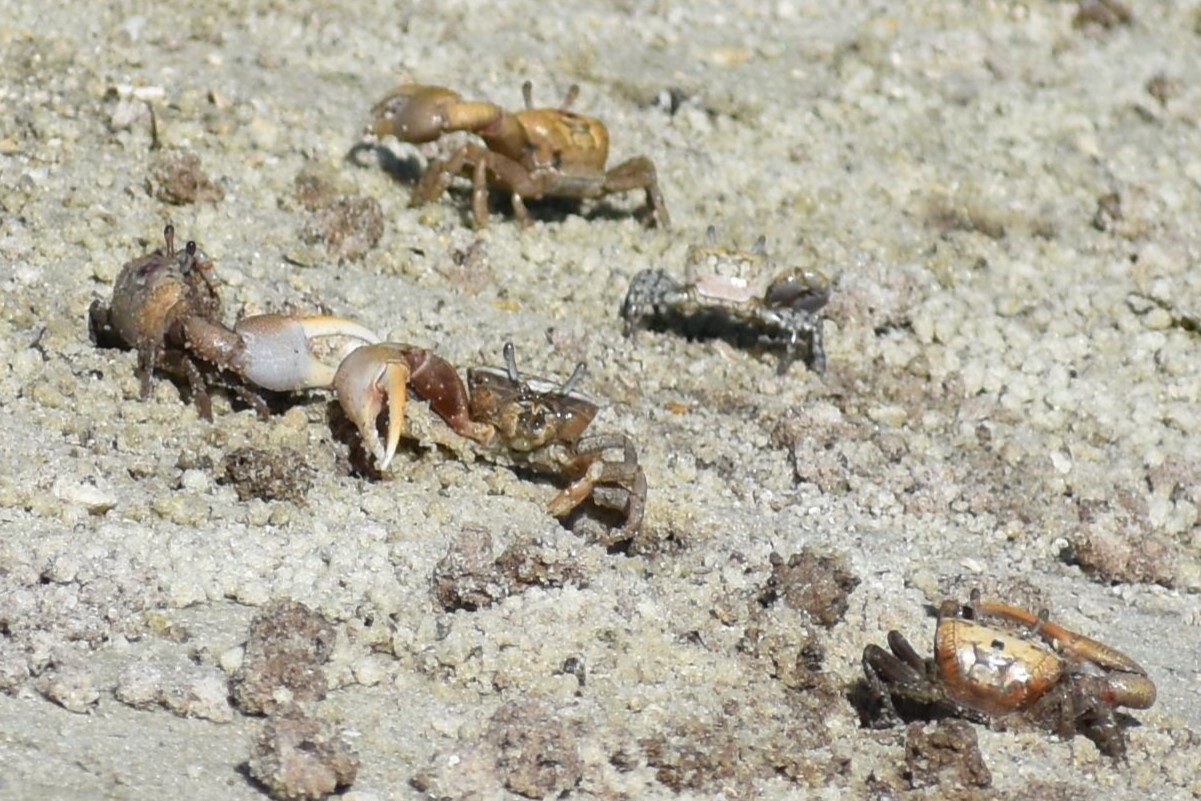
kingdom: Animalia
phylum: Arthropoda
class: Malacostraca
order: Decapoda
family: Ocypodidae
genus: Leptuca
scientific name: Leptuca pugilator
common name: Atlantic sand fiddler crab
